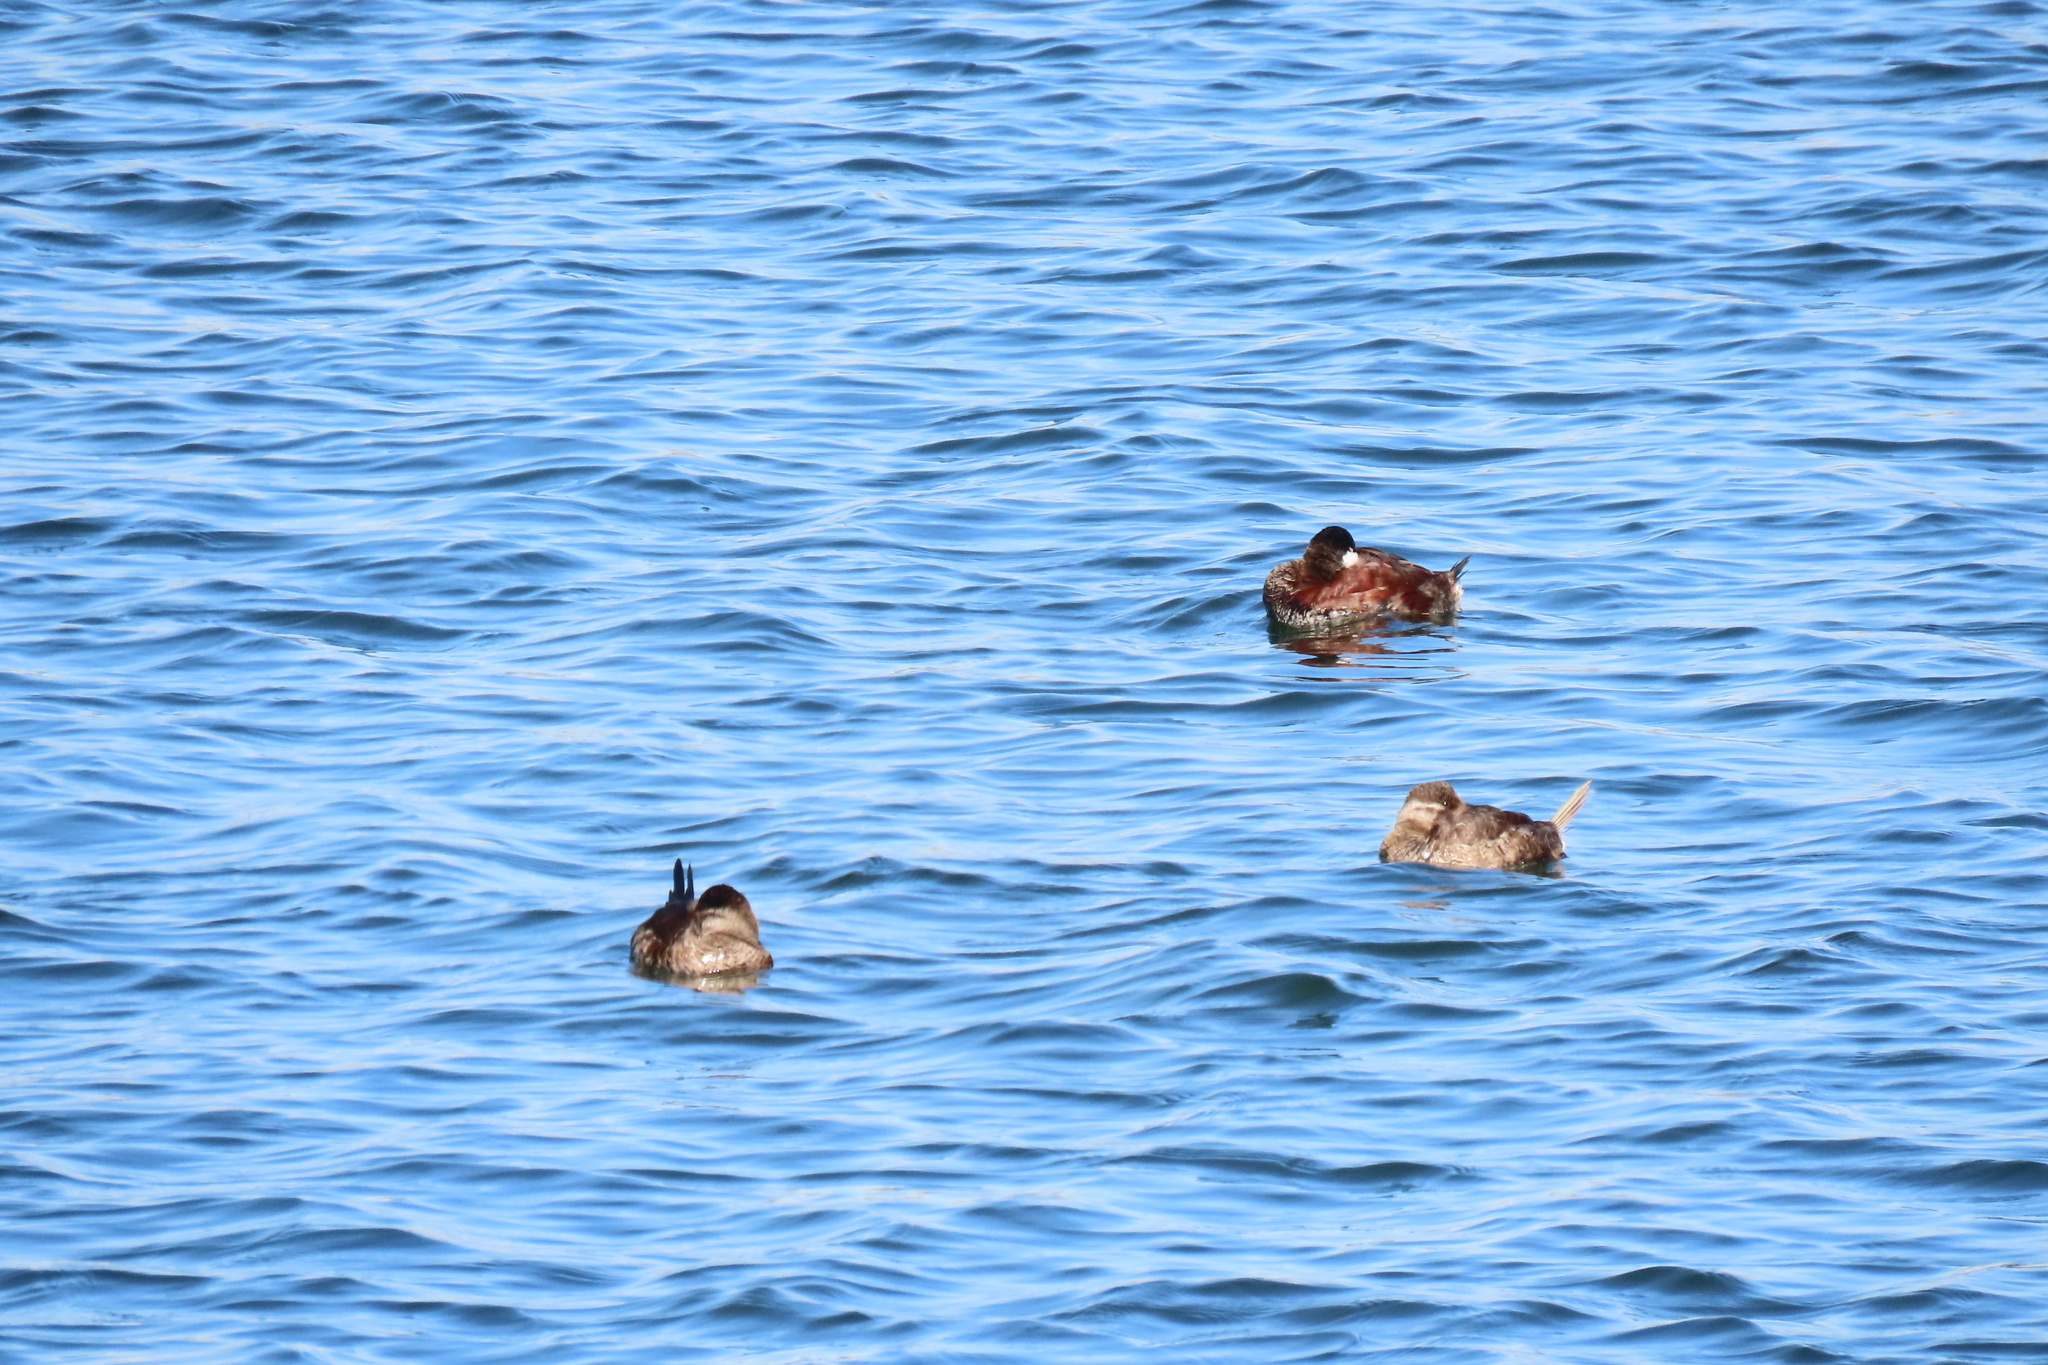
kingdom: Animalia
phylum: Chordata
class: Aves
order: Anseriformes
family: Anatidae
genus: Oxyura
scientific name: Oxyura jamaicensis
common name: Ruddy duck
